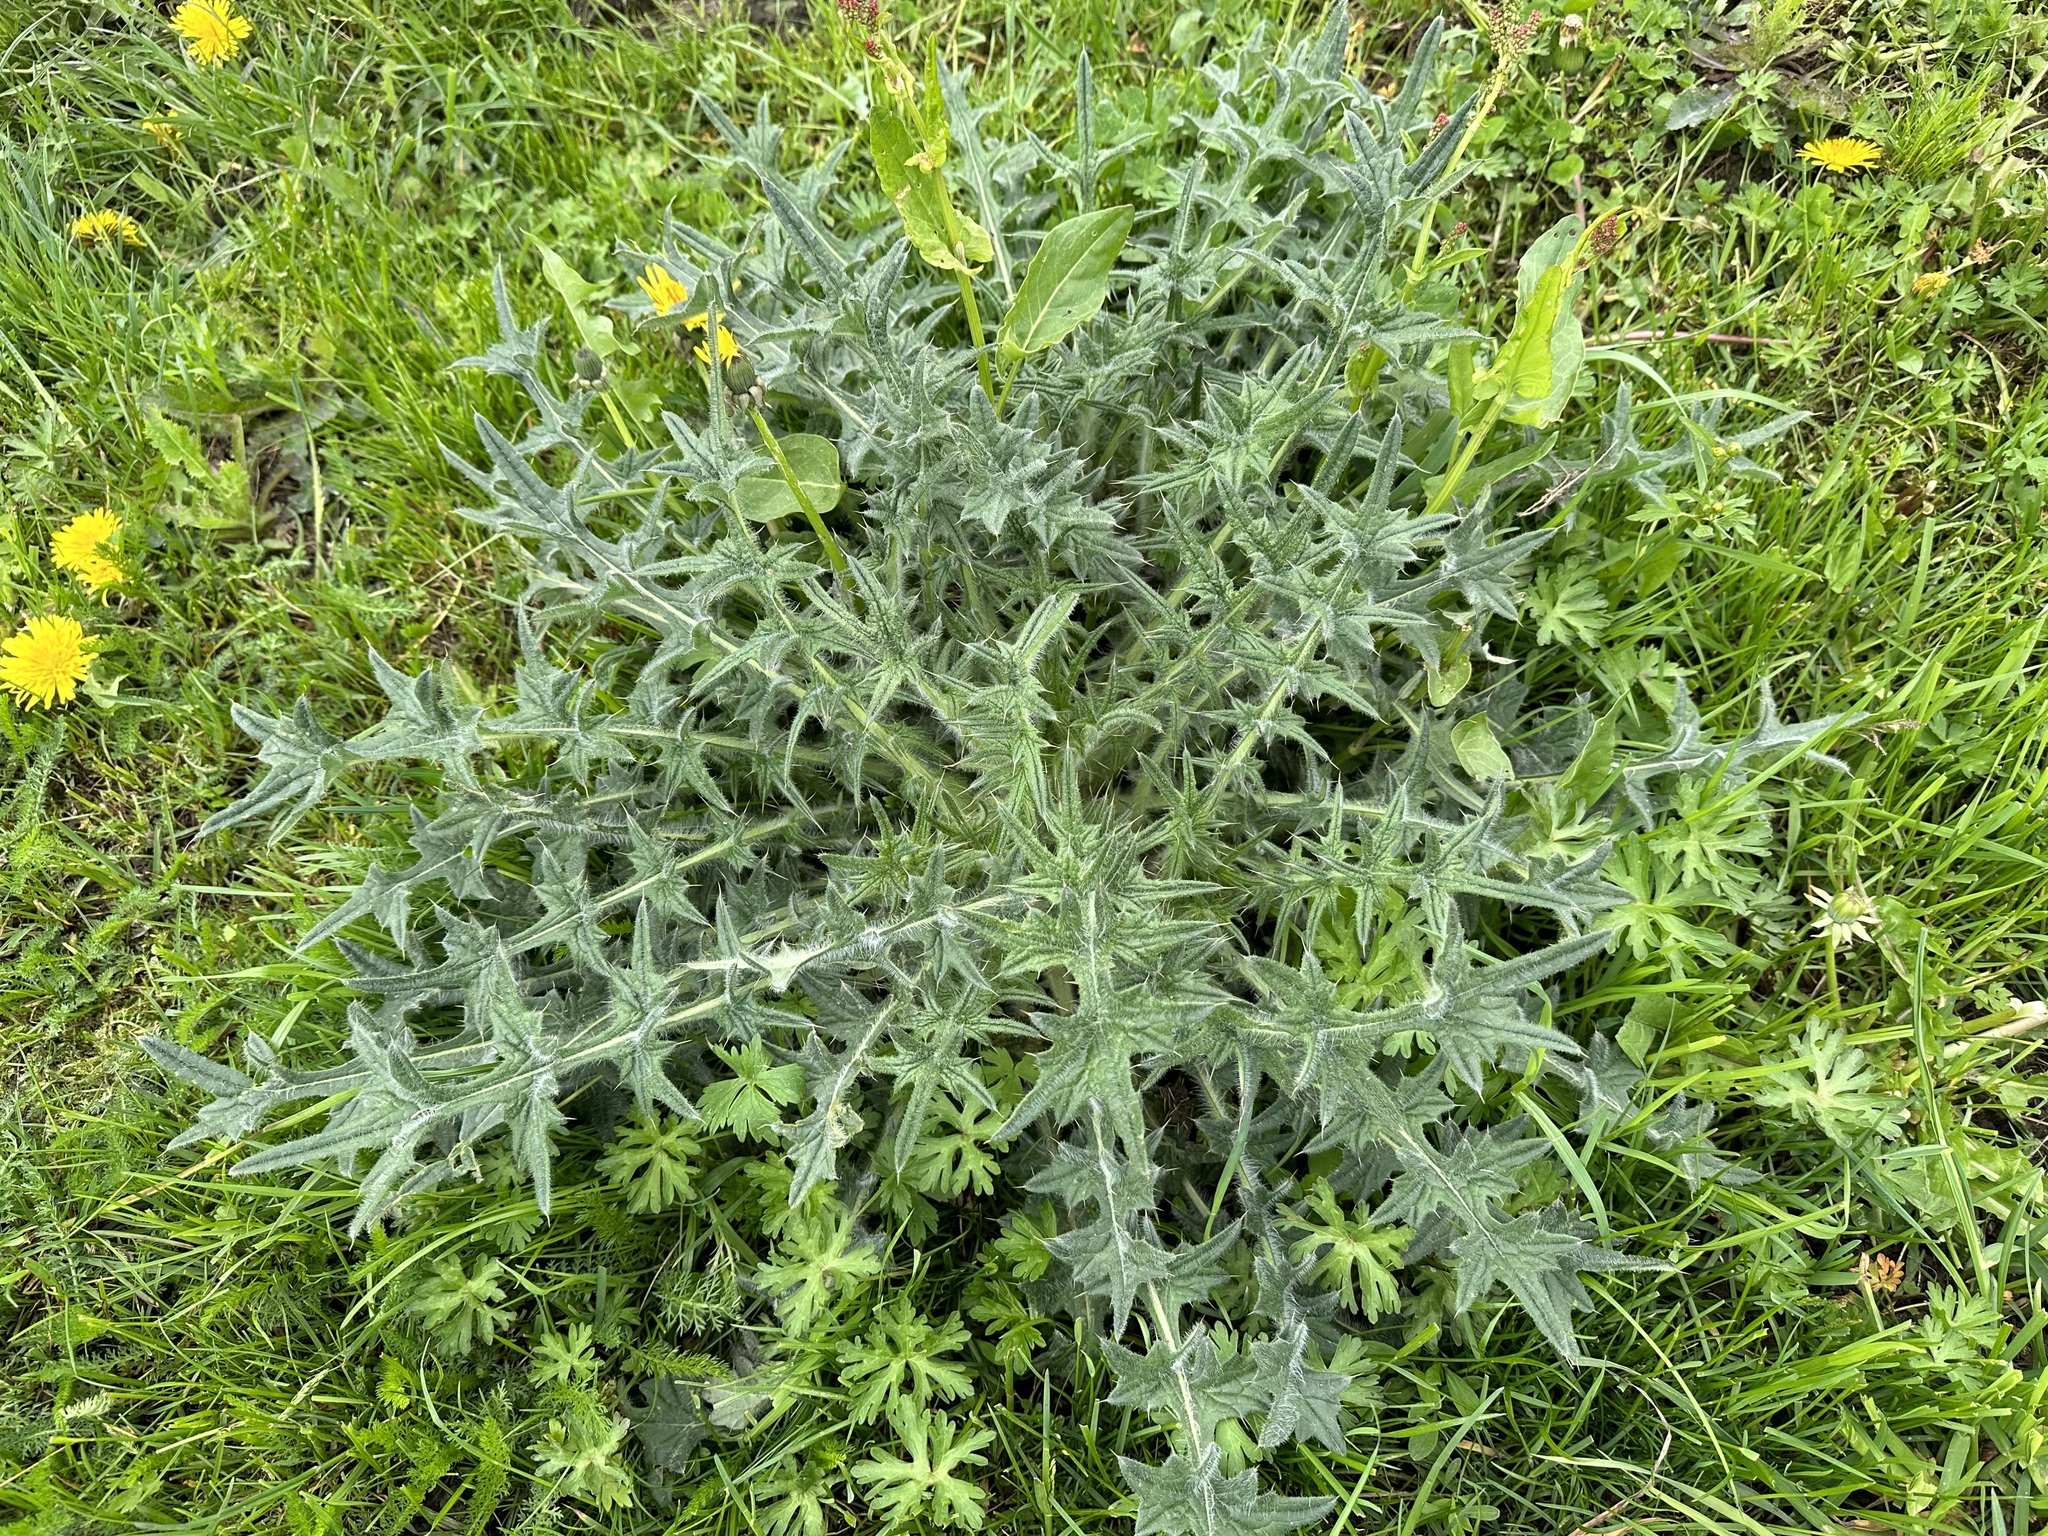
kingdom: Plantae
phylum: Tracheophyta
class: Magnoliopsida
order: Asterales
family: Asteraceae
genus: Cirsium
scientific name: Cirsium vulgare
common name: Bull thistle
